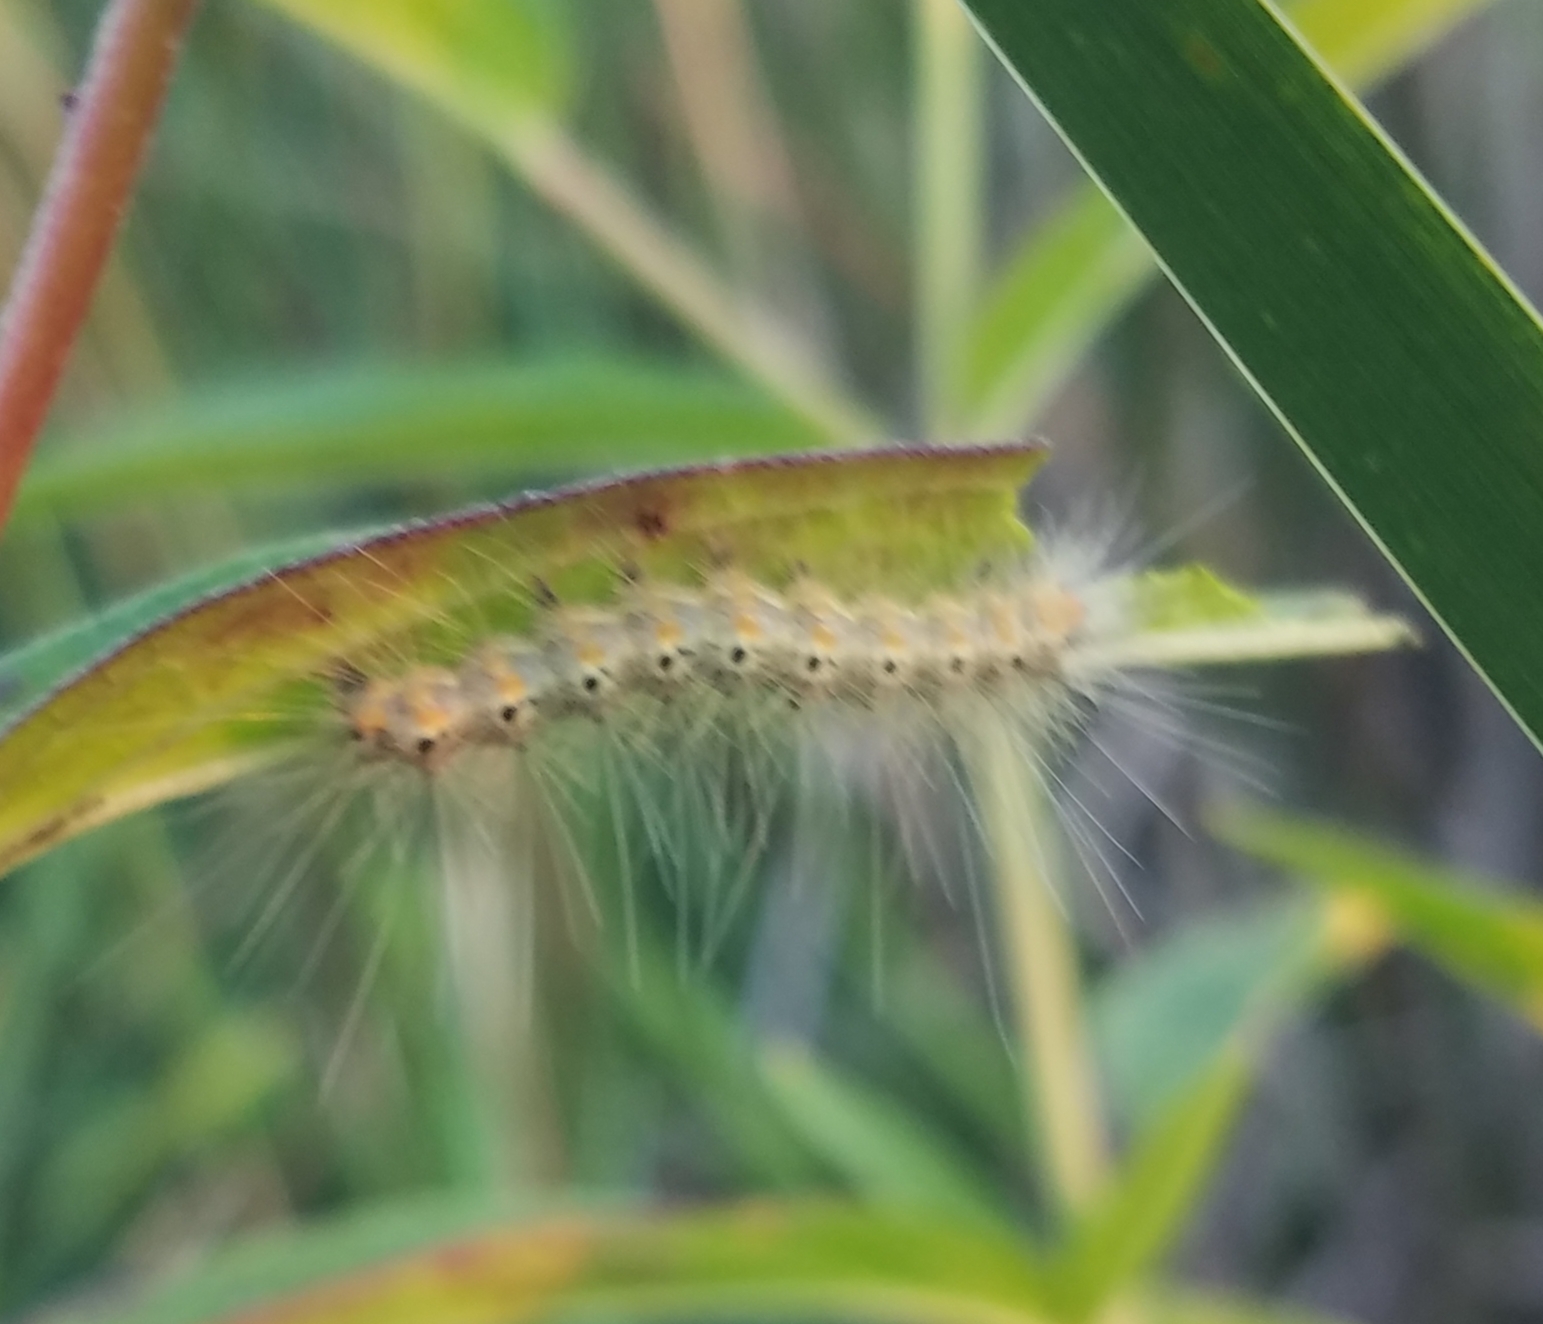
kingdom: Animalia
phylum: Arthropoda
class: Insecta
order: Lepidoptera
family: Erebidae
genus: Hyphantria
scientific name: Hyphantria cunea
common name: American white moth
